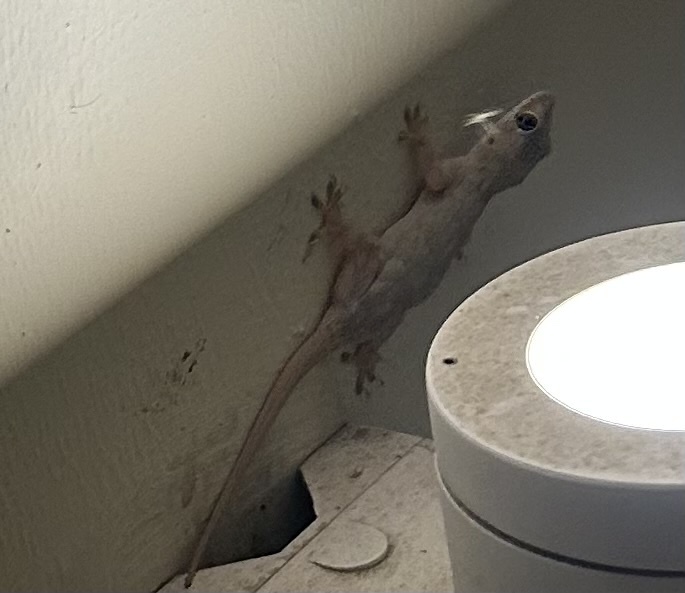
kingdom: Animalia
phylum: Chordata
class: Squamata
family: Gekkonidae
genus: Hemidactylus
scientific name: Hemidactylus mabouia
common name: House gecko
